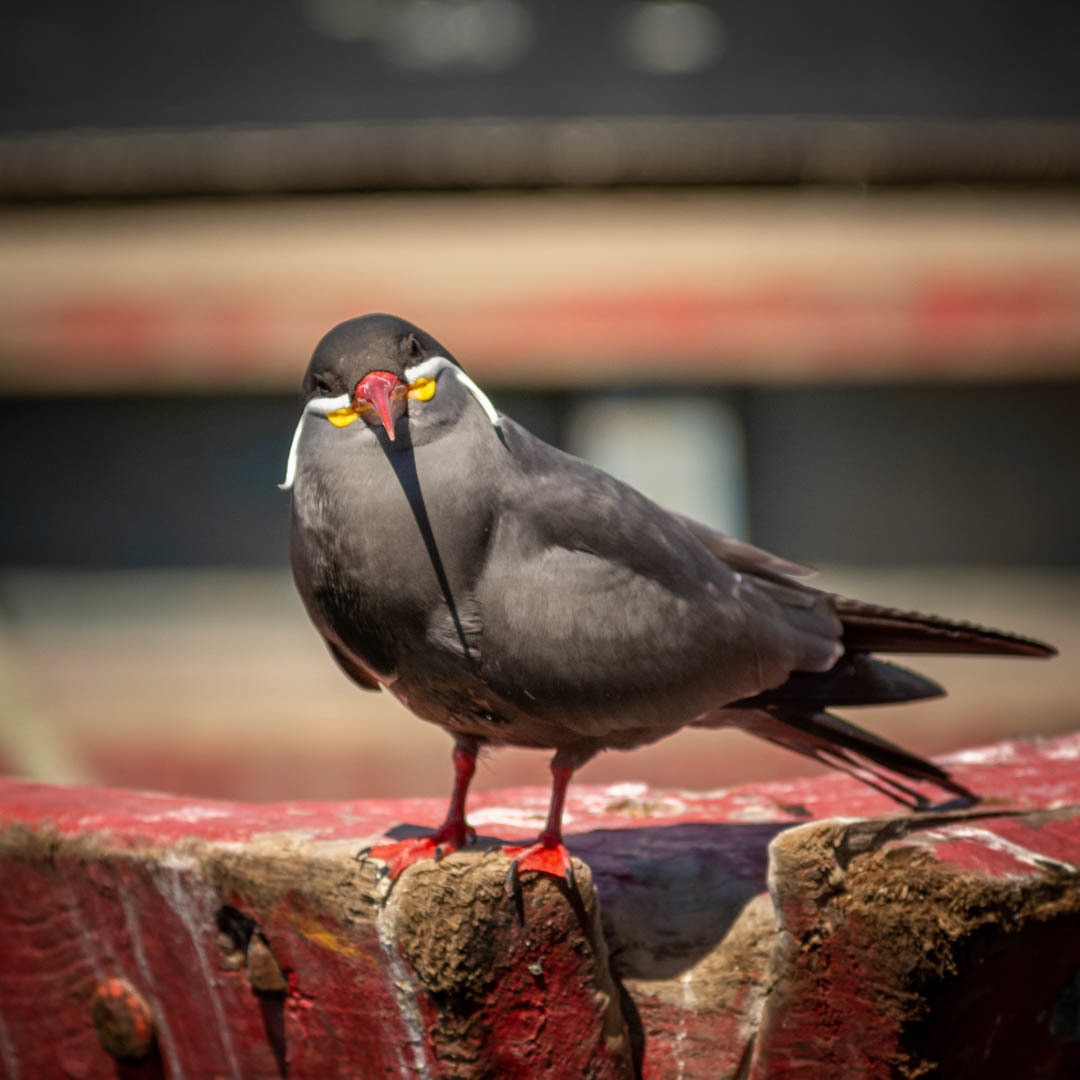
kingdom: Animalia
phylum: Chordata
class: Aves
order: Charadriiformes
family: Laridae
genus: Larosterna
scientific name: Larosterna inca
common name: Inca tern
